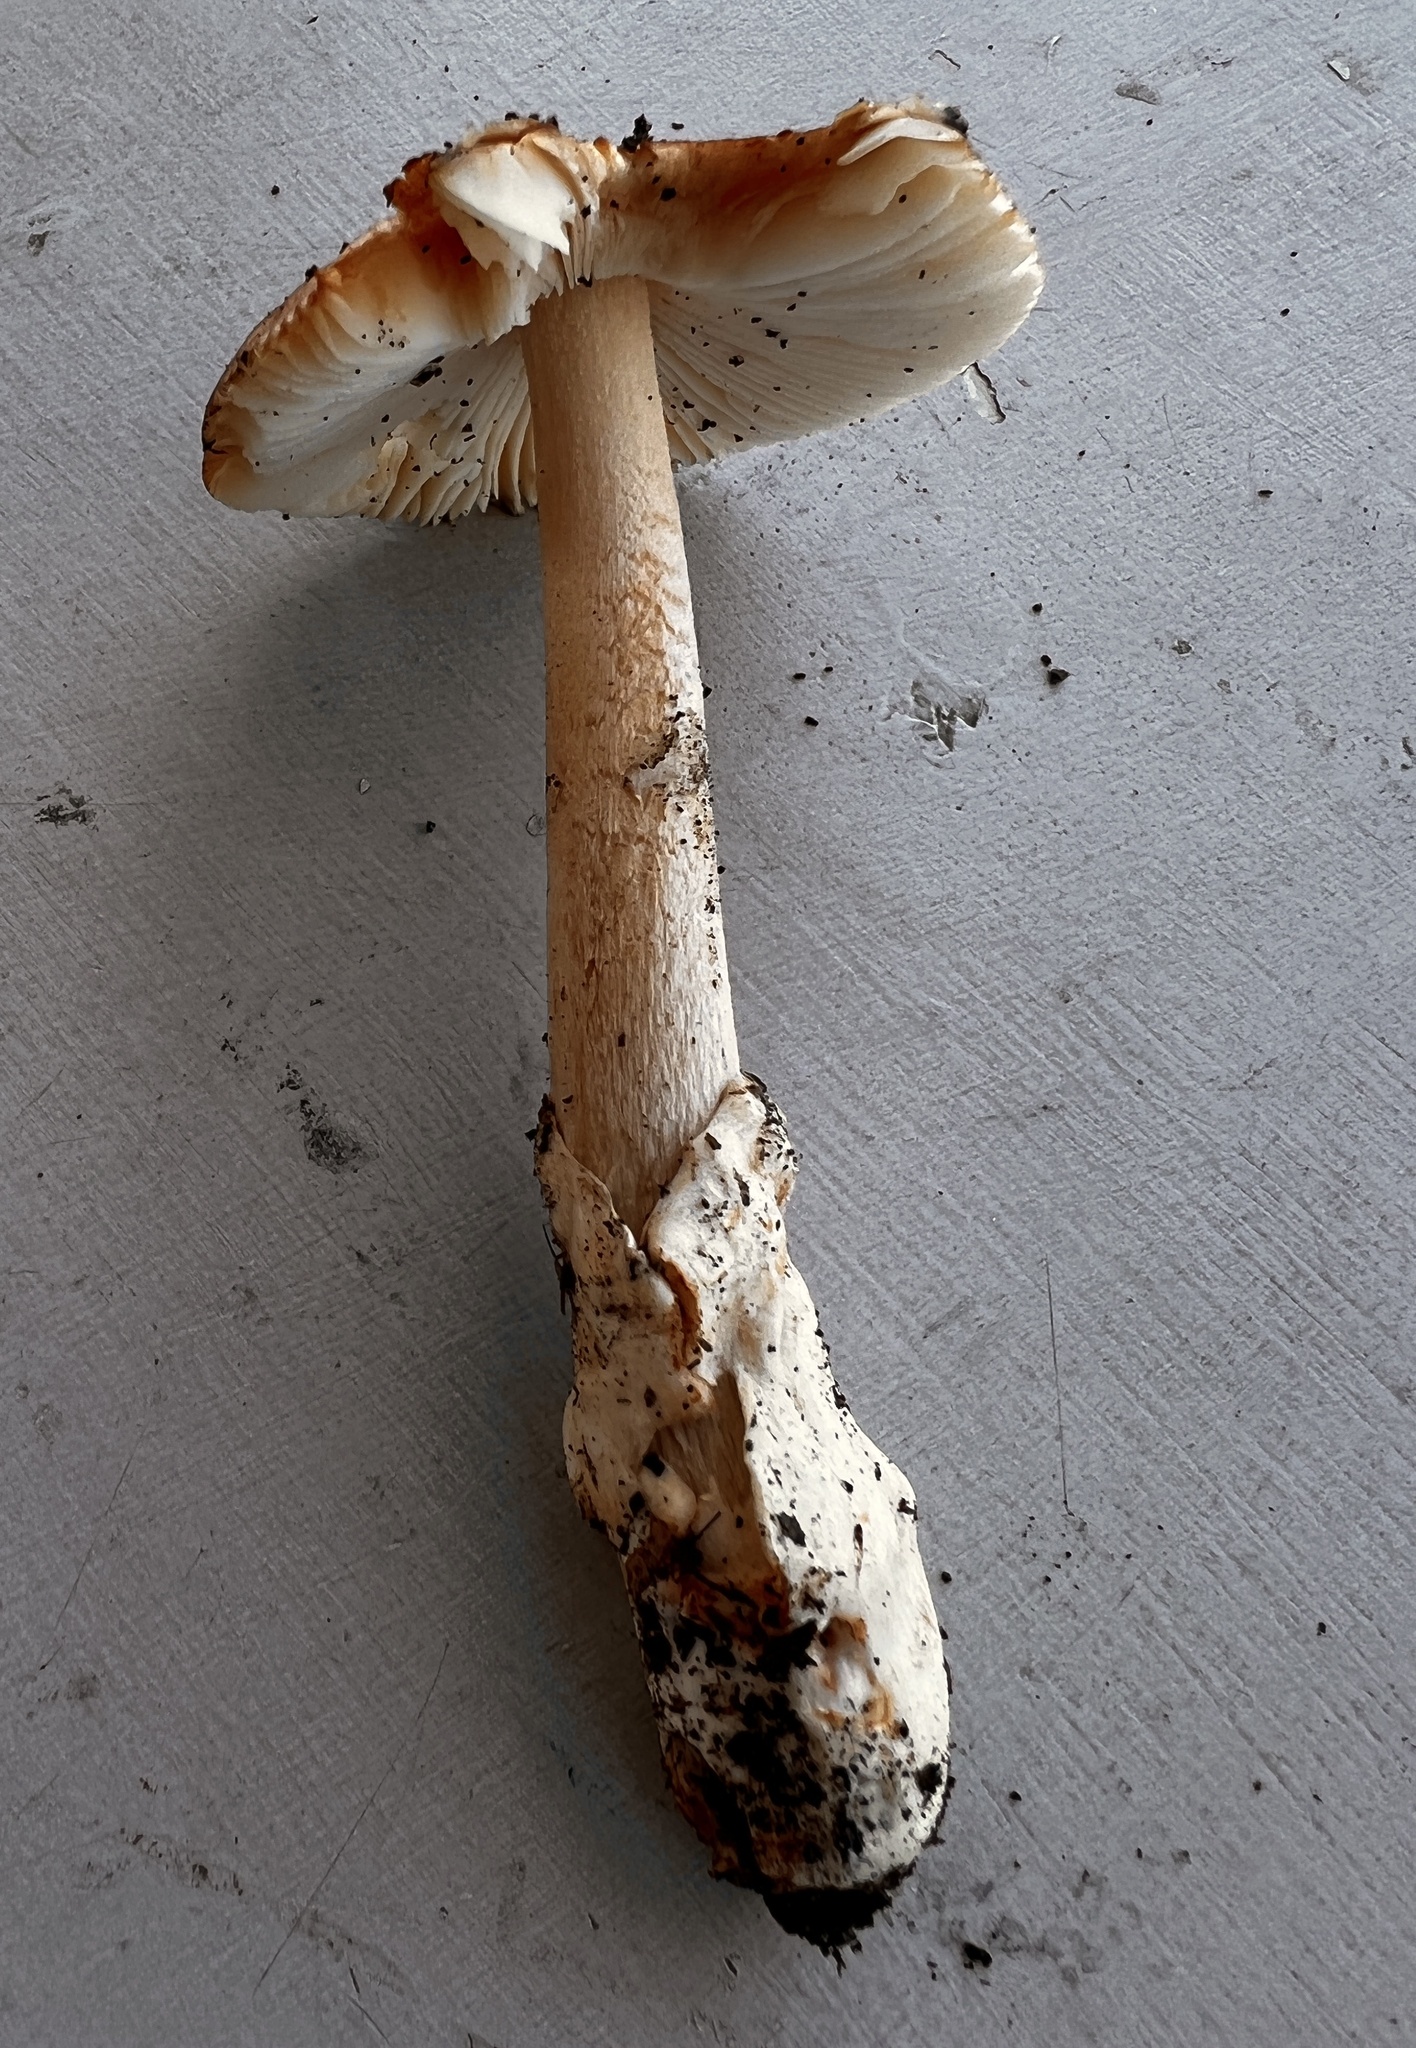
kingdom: Fungi
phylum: Basidiomycota
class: Agaricomycetes
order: Agaricales
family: Amanitaceae
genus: Amanita
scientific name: Amanita fulva
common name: Tawny grisette
